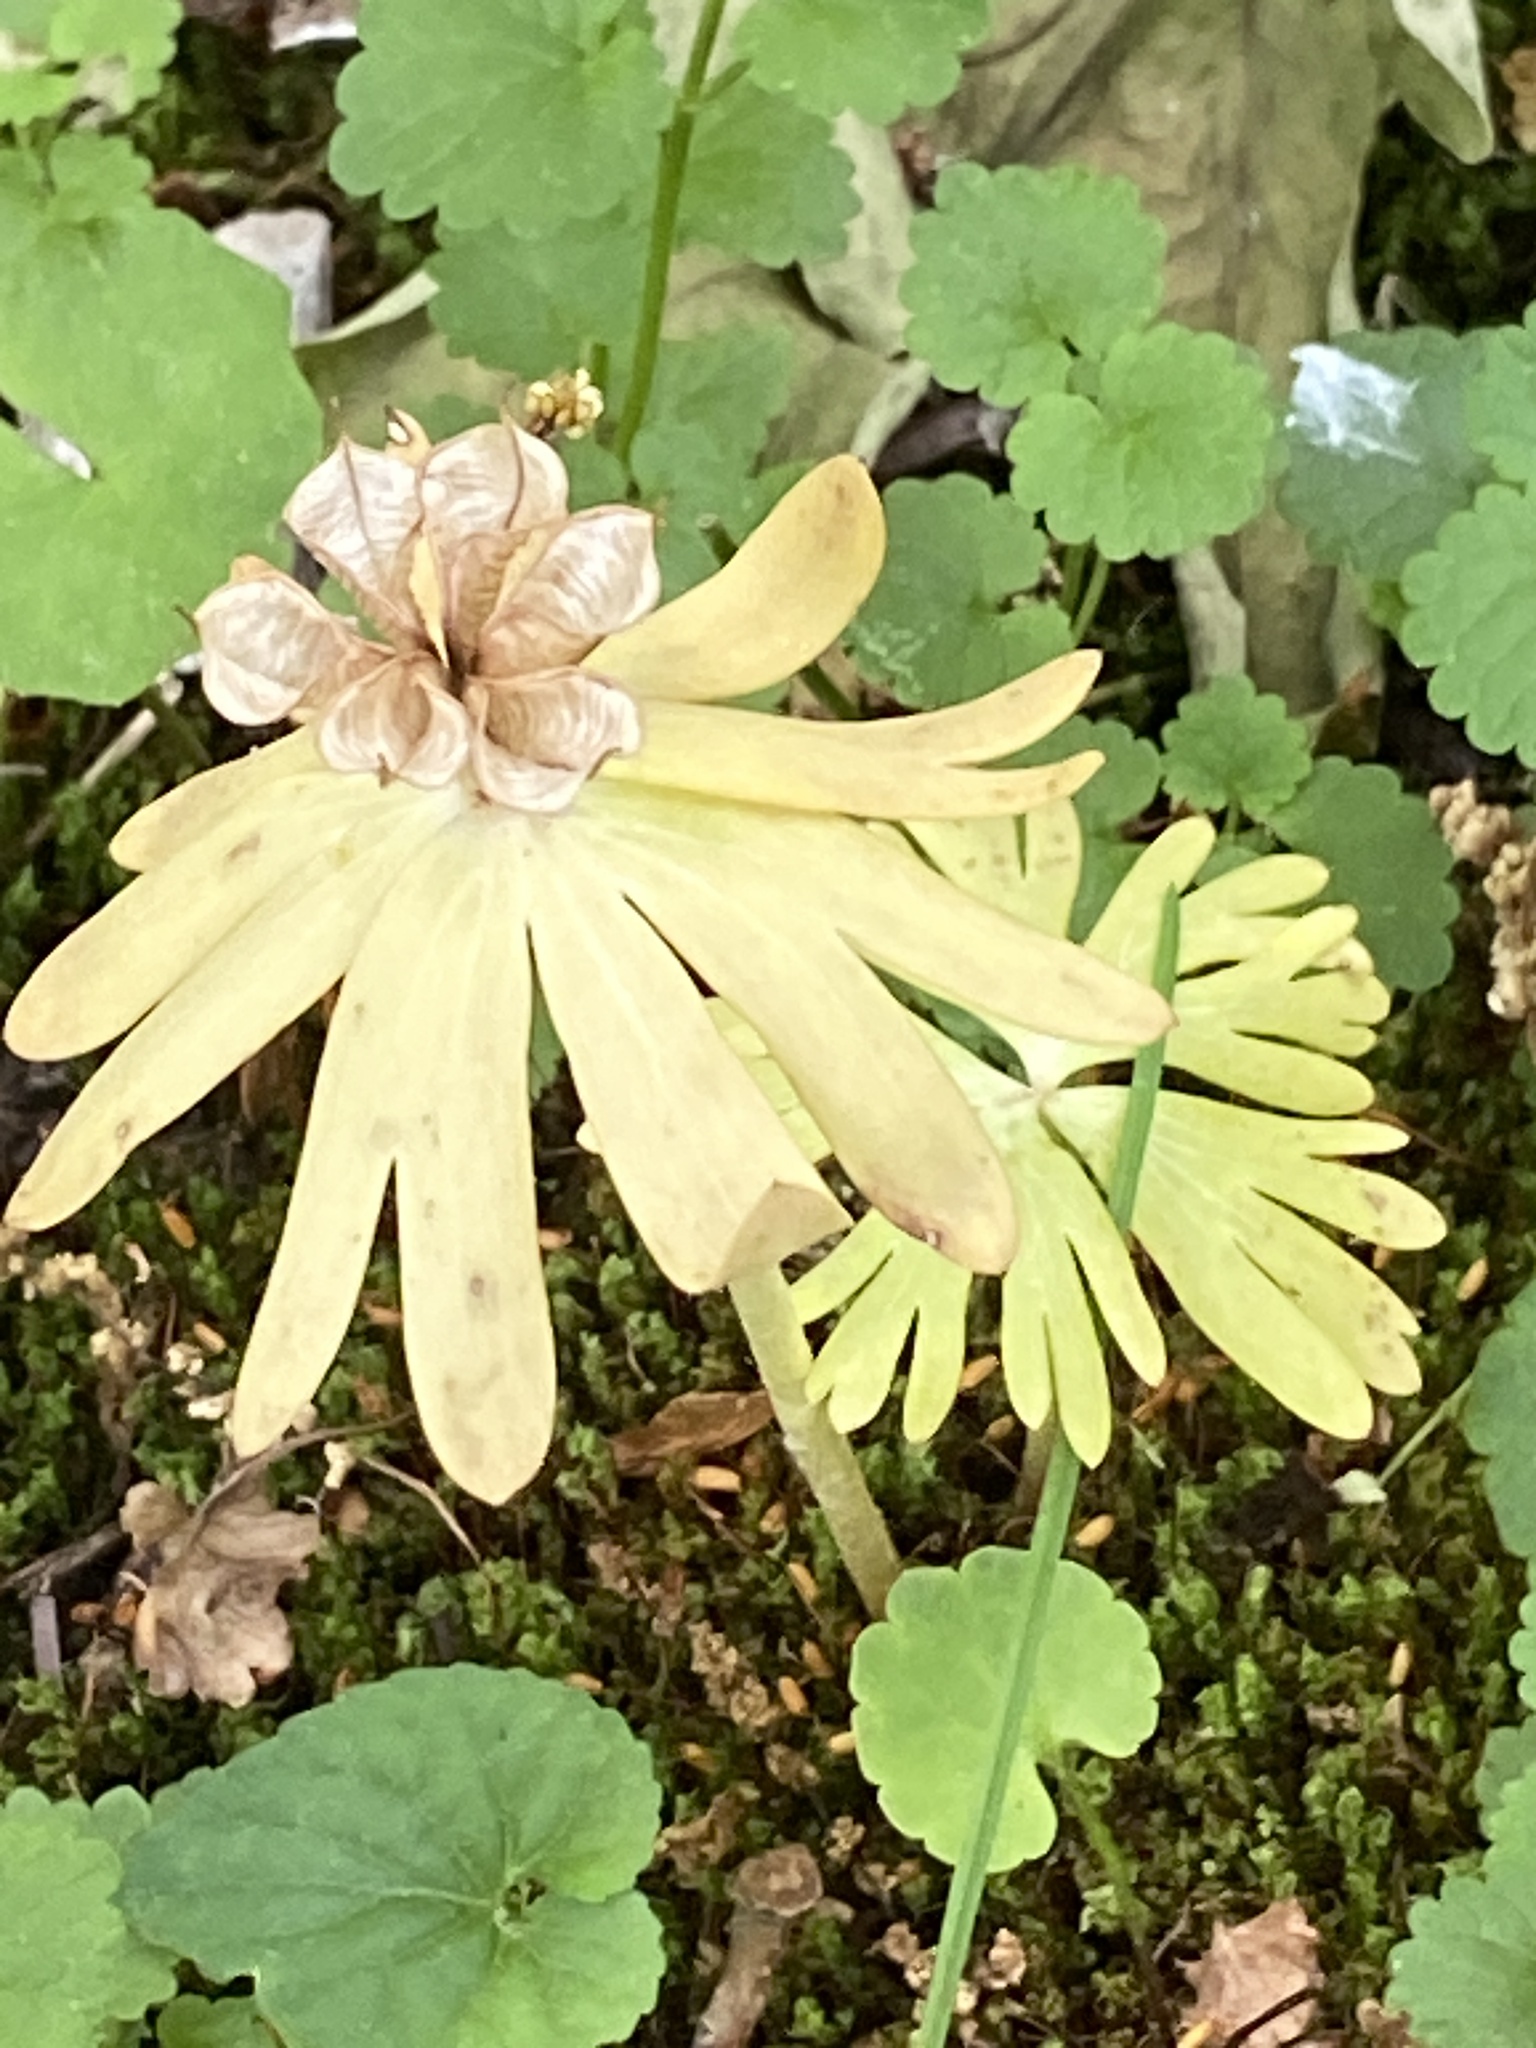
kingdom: Plantae
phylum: Tracheophyta
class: Magnoliopsida
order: Ranunculales
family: Ranunculaceae
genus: Eranthis
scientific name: Eranthis hyemalis
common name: Winter aconite
